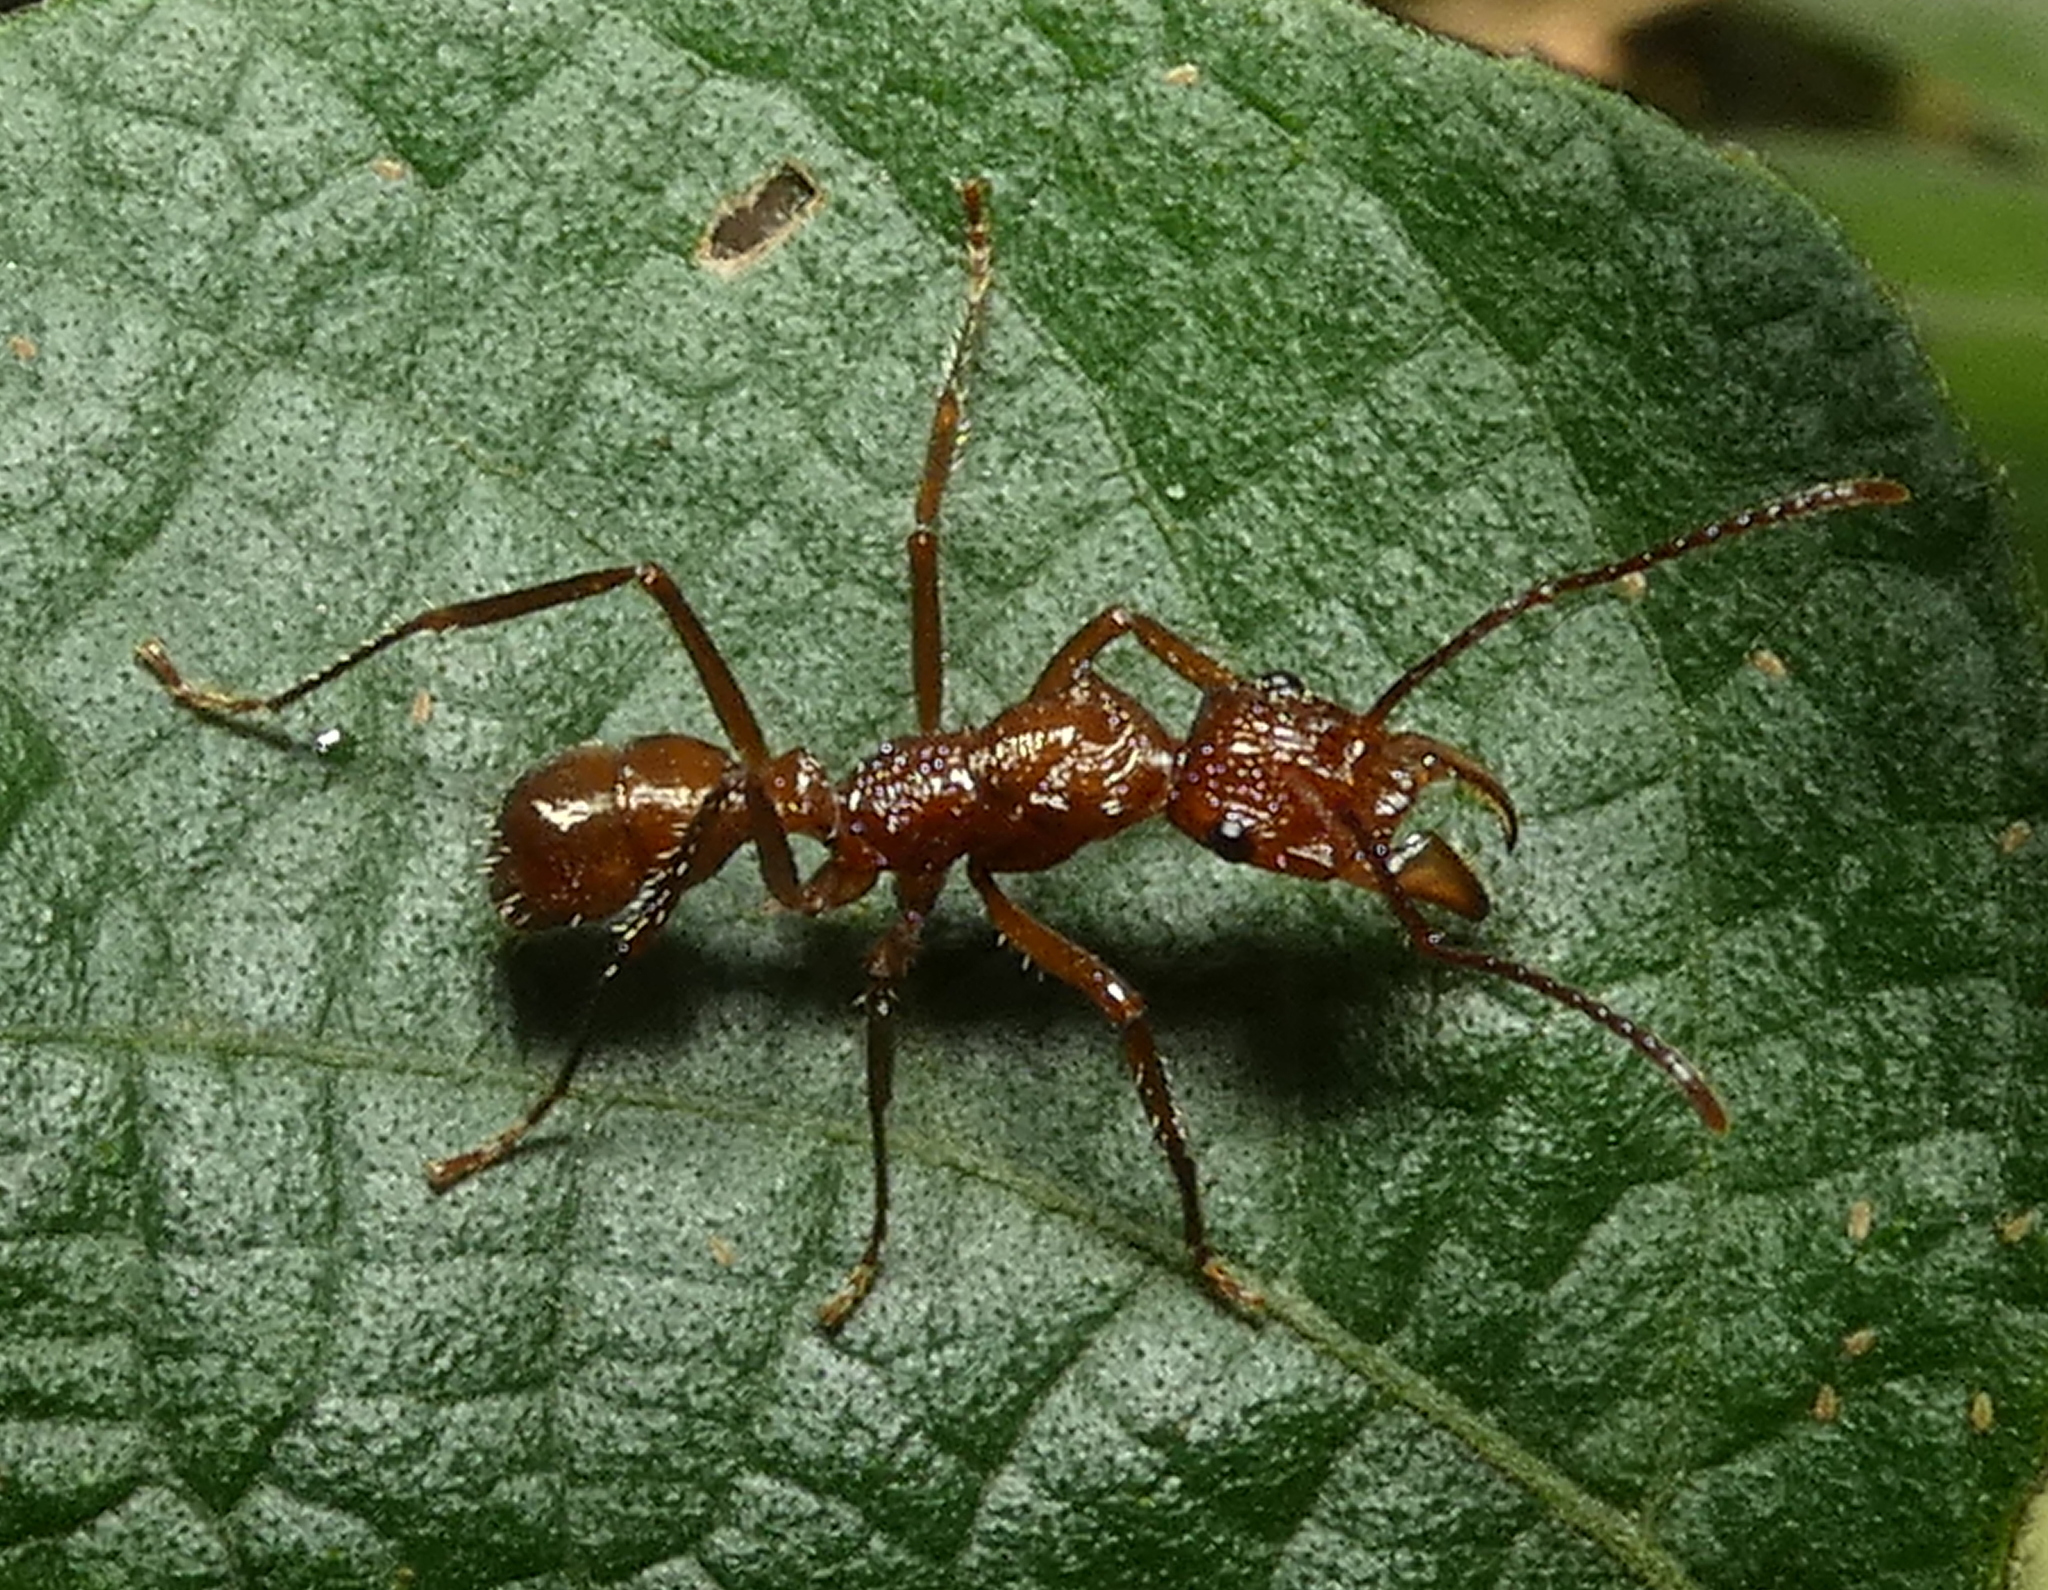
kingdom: Animalia
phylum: Arthropoda
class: Insecta
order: Hymenoptera
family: Formicidae
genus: Ectatomma
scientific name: Ectatomma tuberculatum
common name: Ant
